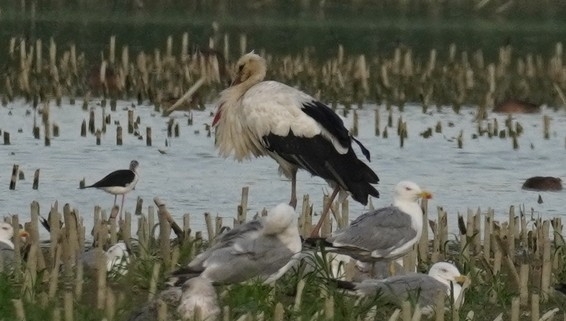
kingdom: Animalia
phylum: Chordata
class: Aves
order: Ciconiiformes
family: Ciconiidae
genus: Ciconia
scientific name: Ciconia ciconia
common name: White stork
